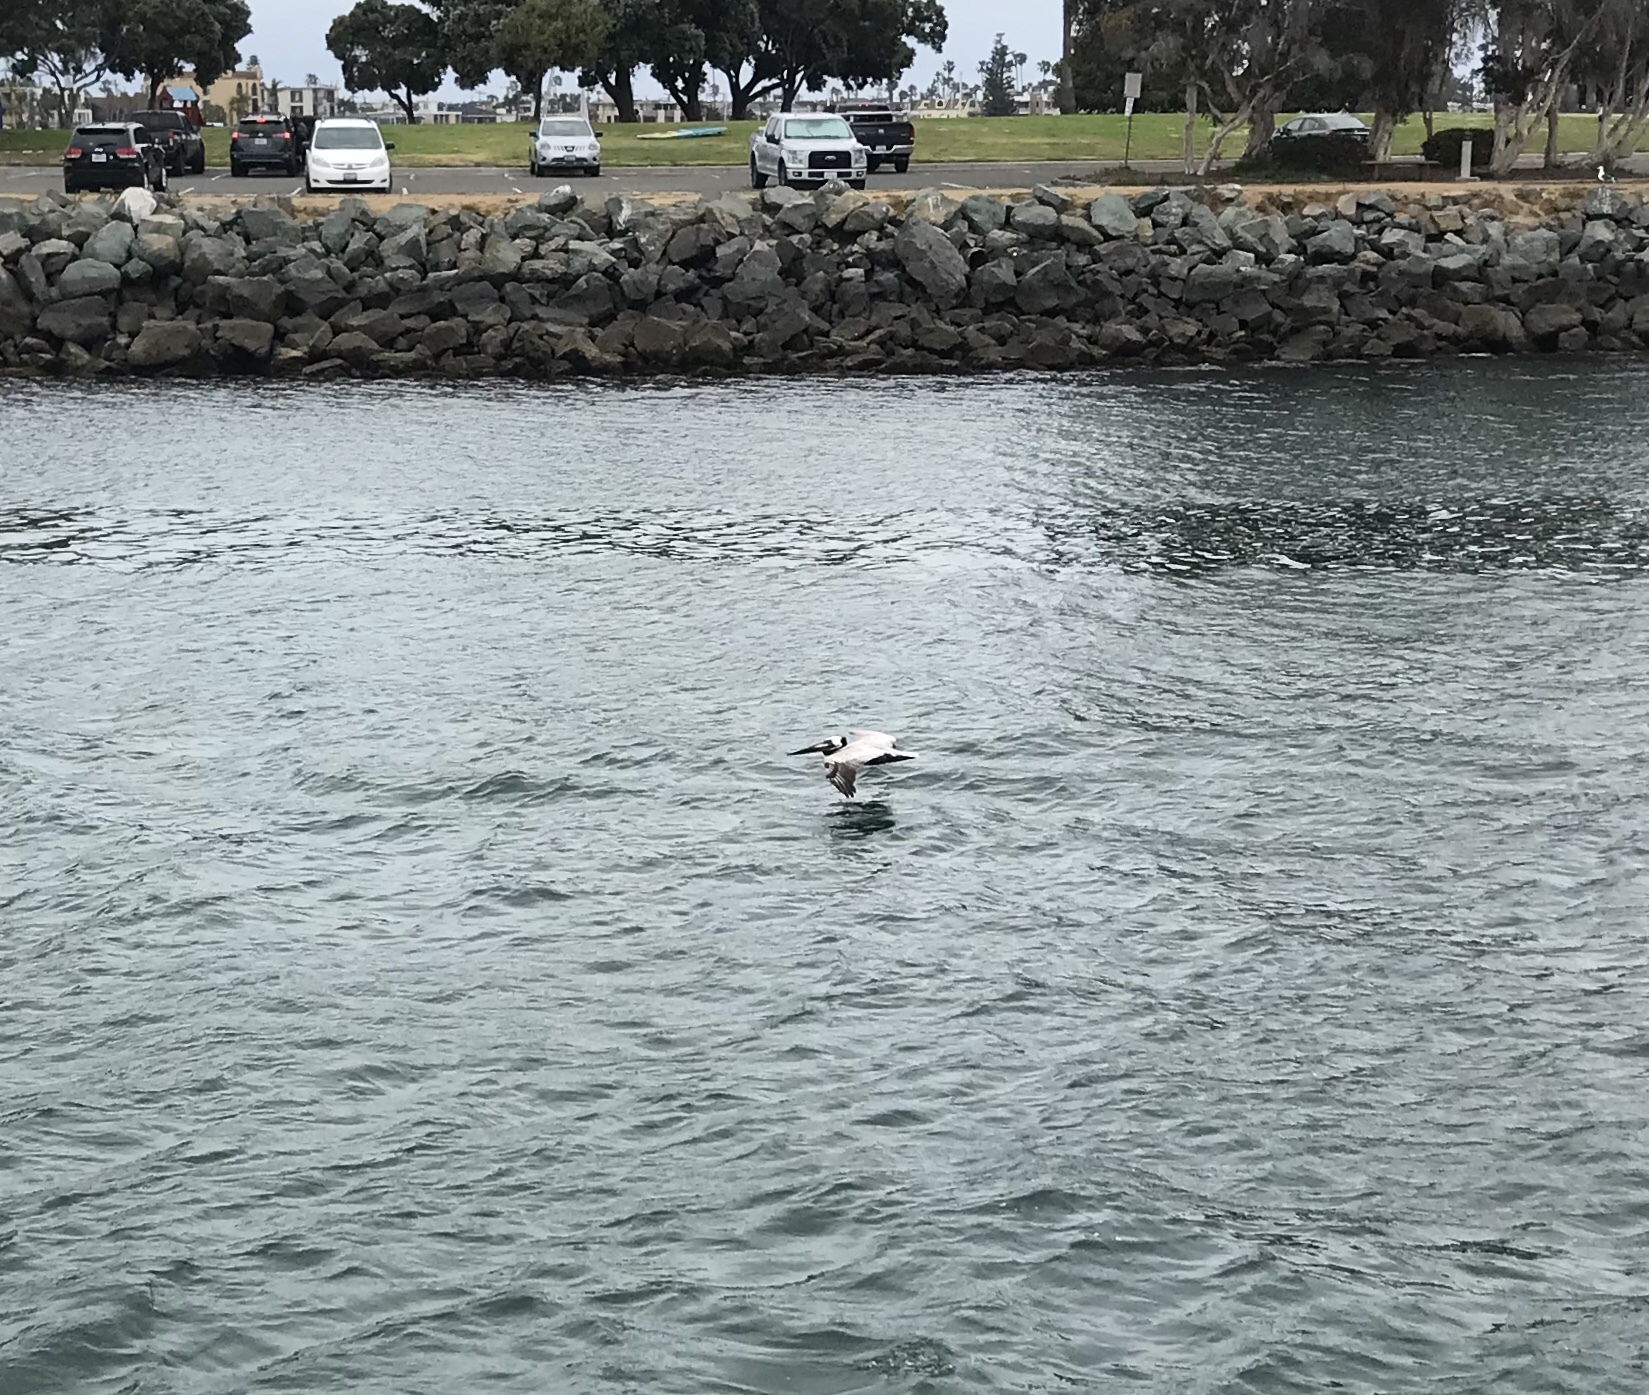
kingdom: Animalia
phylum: Chordata
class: Aves
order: Pelecaniformes
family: Pelecanidae
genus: Pelecanus
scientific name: Pelecanus occidentalis
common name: Brown pelican
